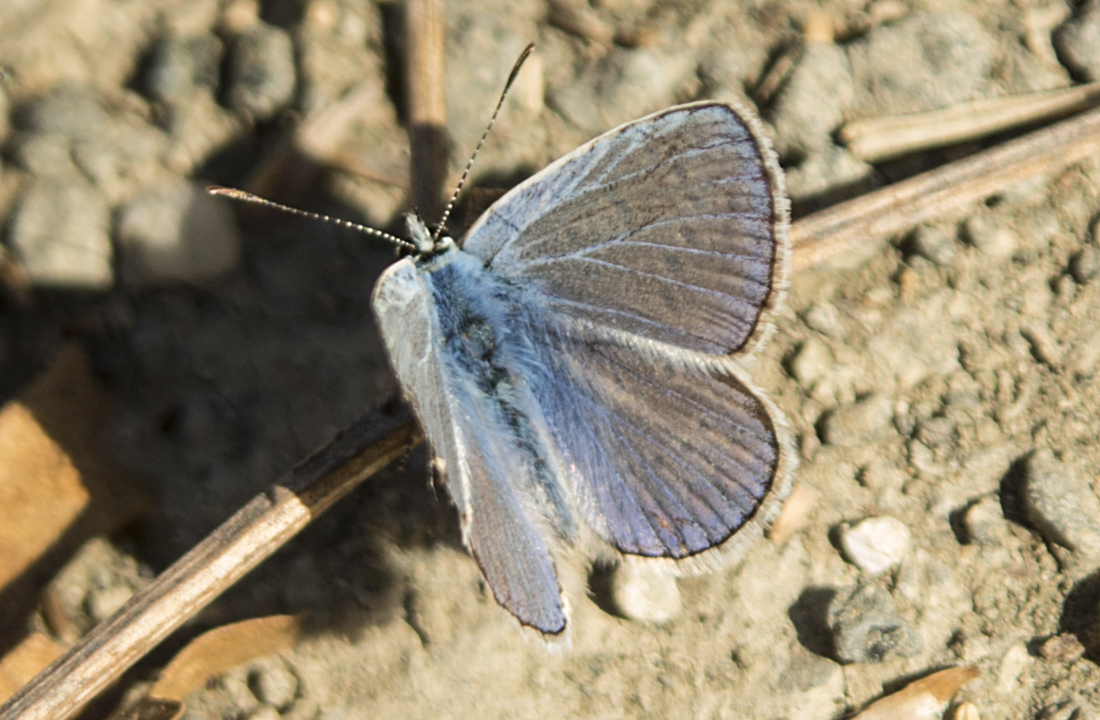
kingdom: Animalia
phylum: Arthropoda
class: Insecta
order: Lepidoptera
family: Lycaenidae
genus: Polyommatus
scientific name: Polyommatus icarus
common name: Common blue
